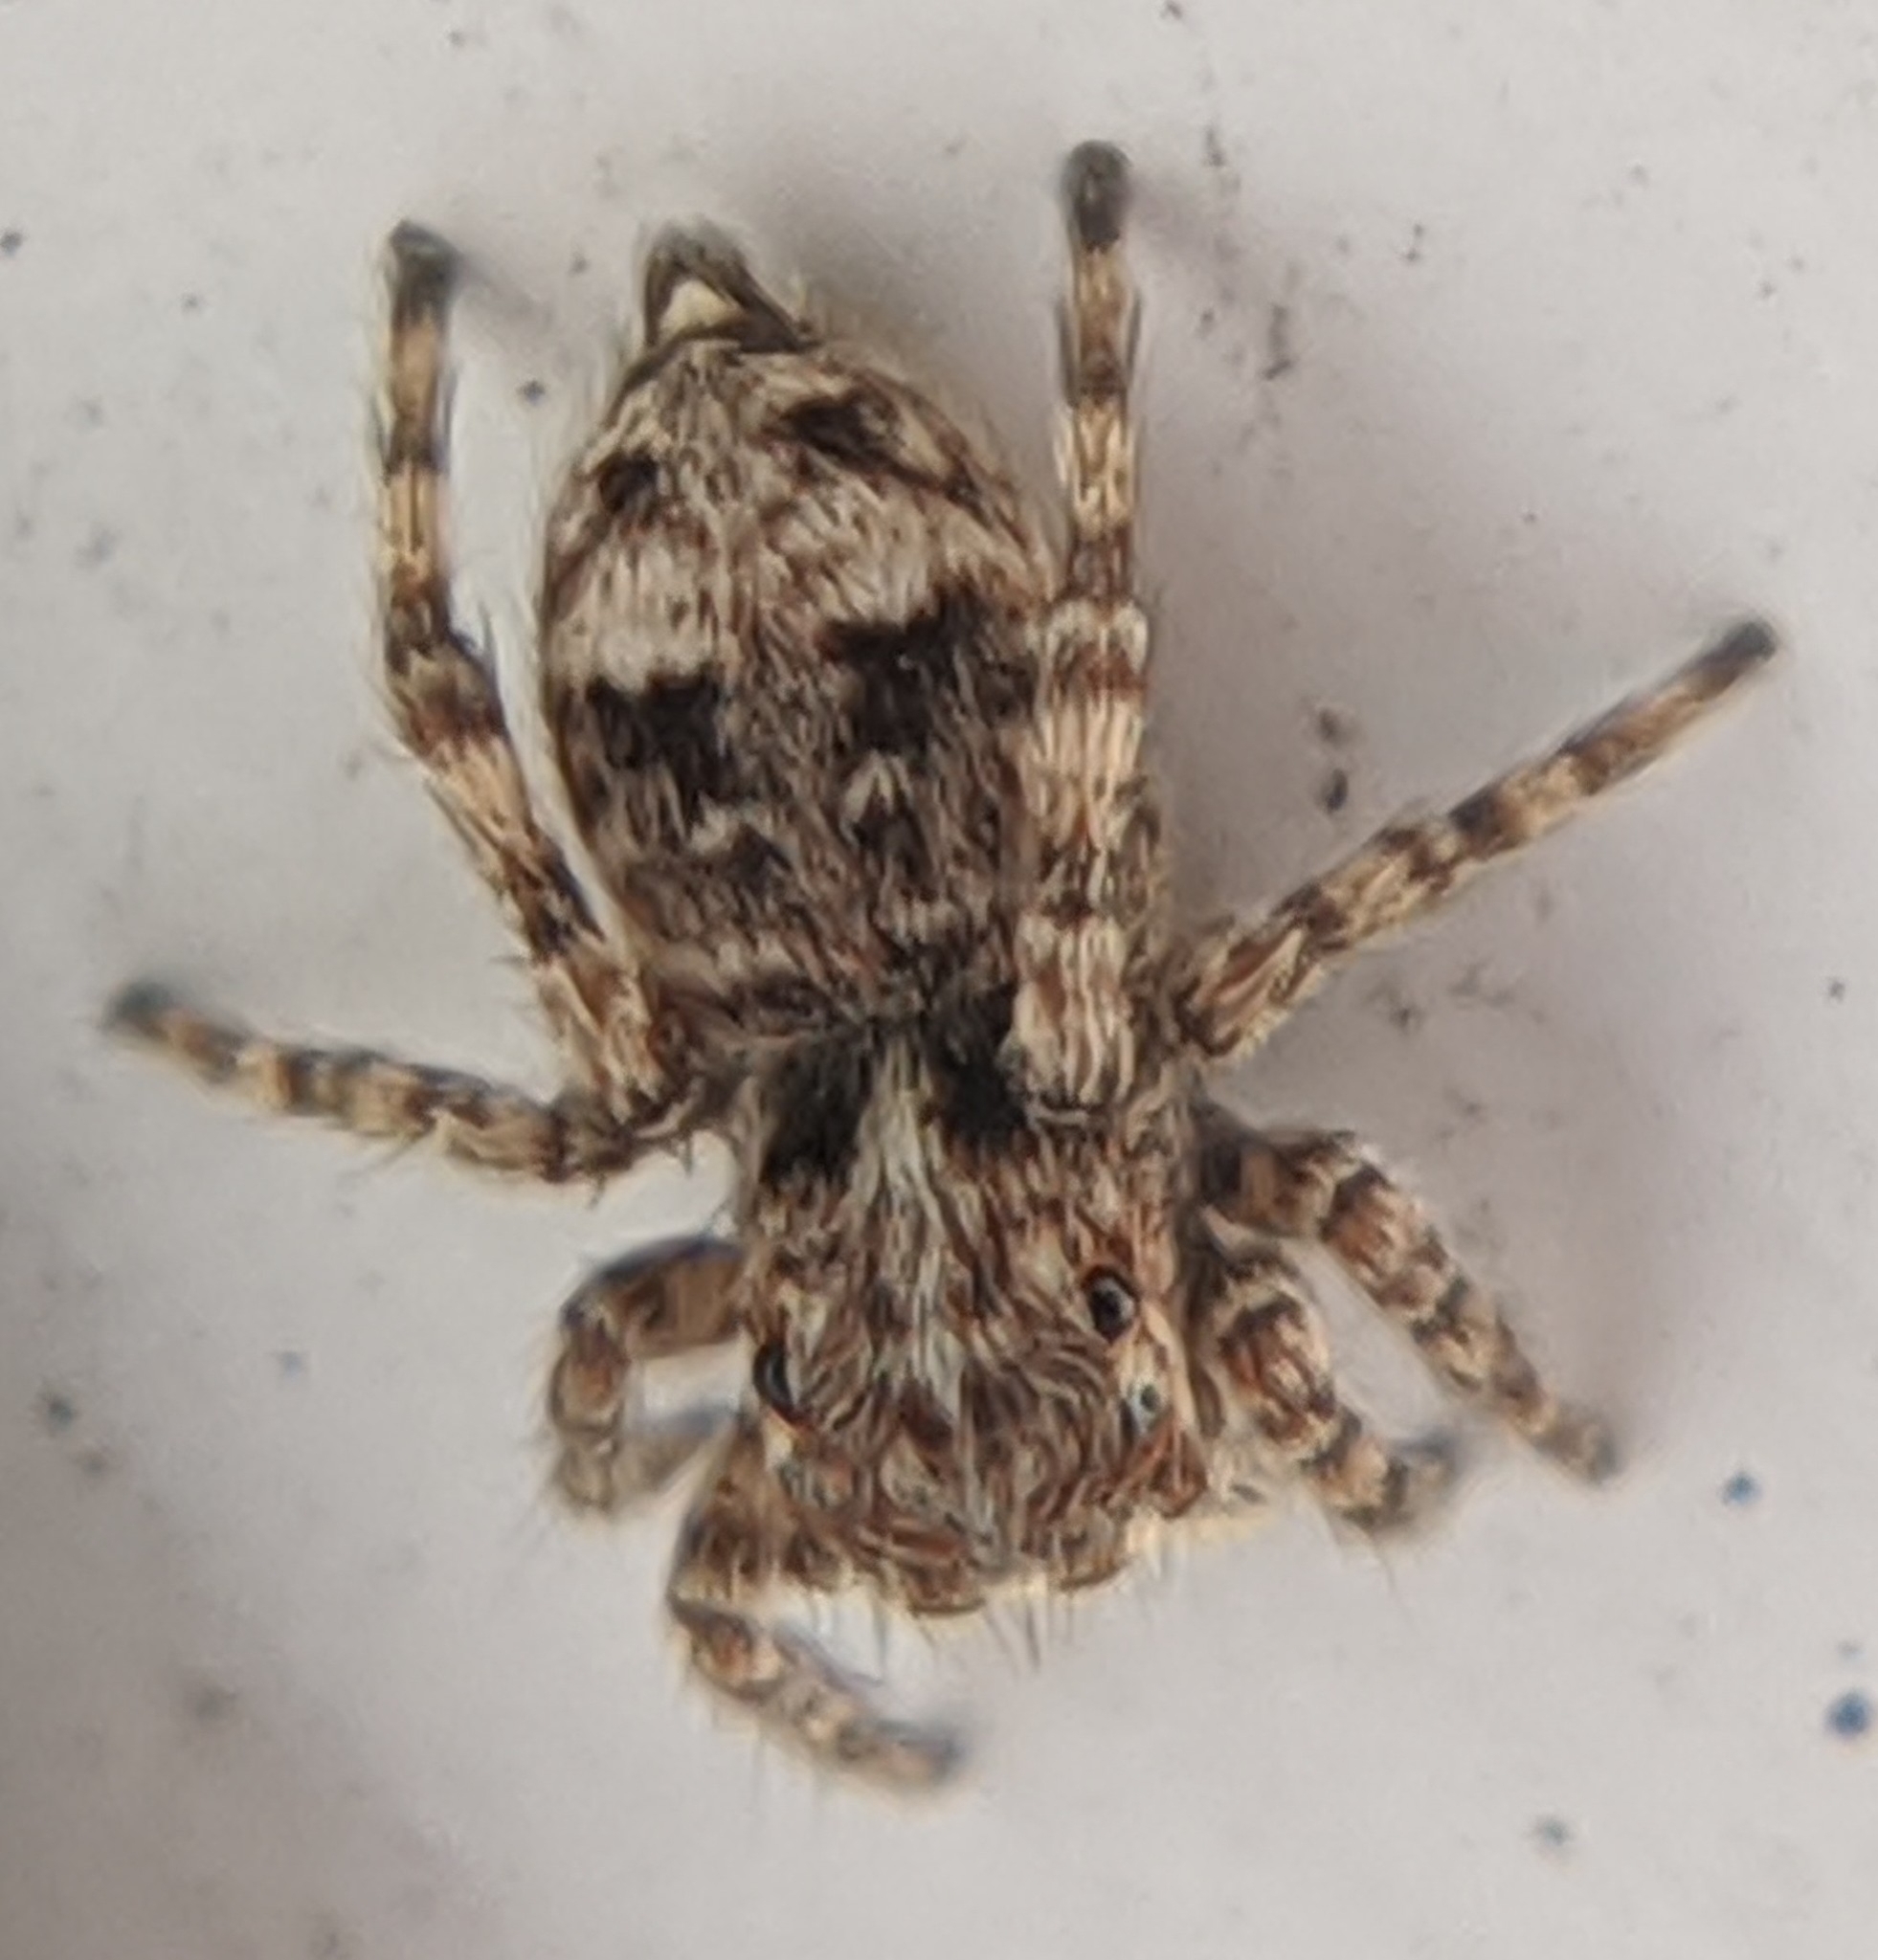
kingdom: Animalia
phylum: Arthropoda
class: Arachnida
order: Araneae
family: Salticidae
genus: Attulus
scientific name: Attulus fasciger
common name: Asiatic wall jumping spider
